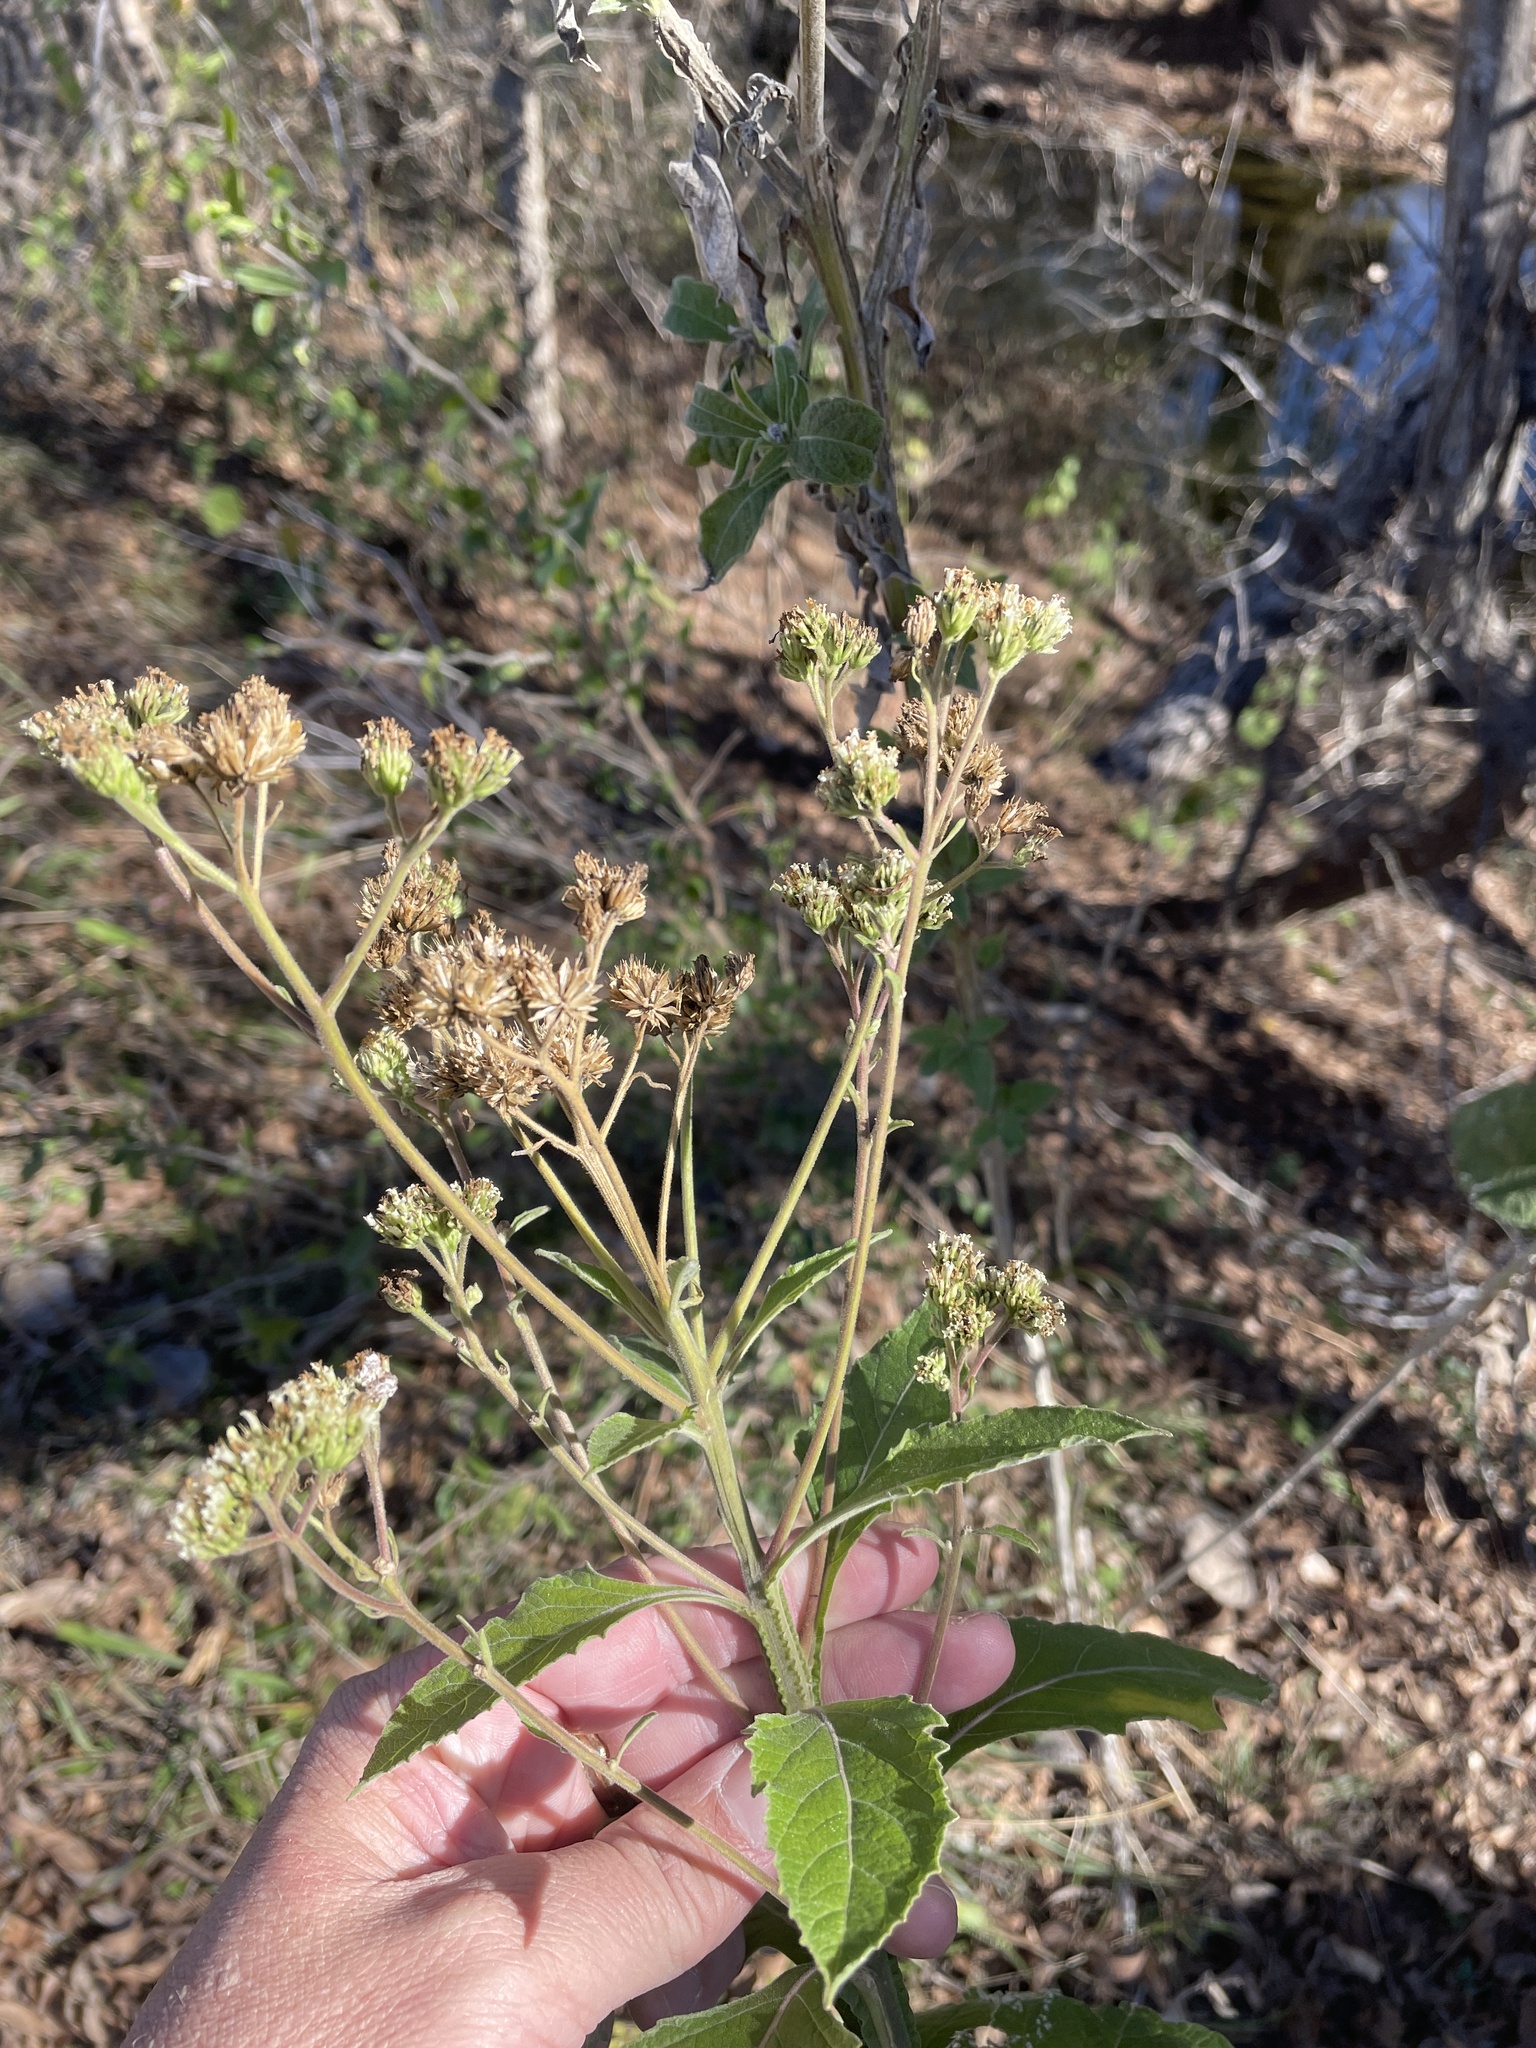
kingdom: Plantae
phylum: Tracheophyta
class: Magnoliopsida
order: Asterales
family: Asteraceae
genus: Verbesina
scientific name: Verbesina virginica
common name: Frostweed
